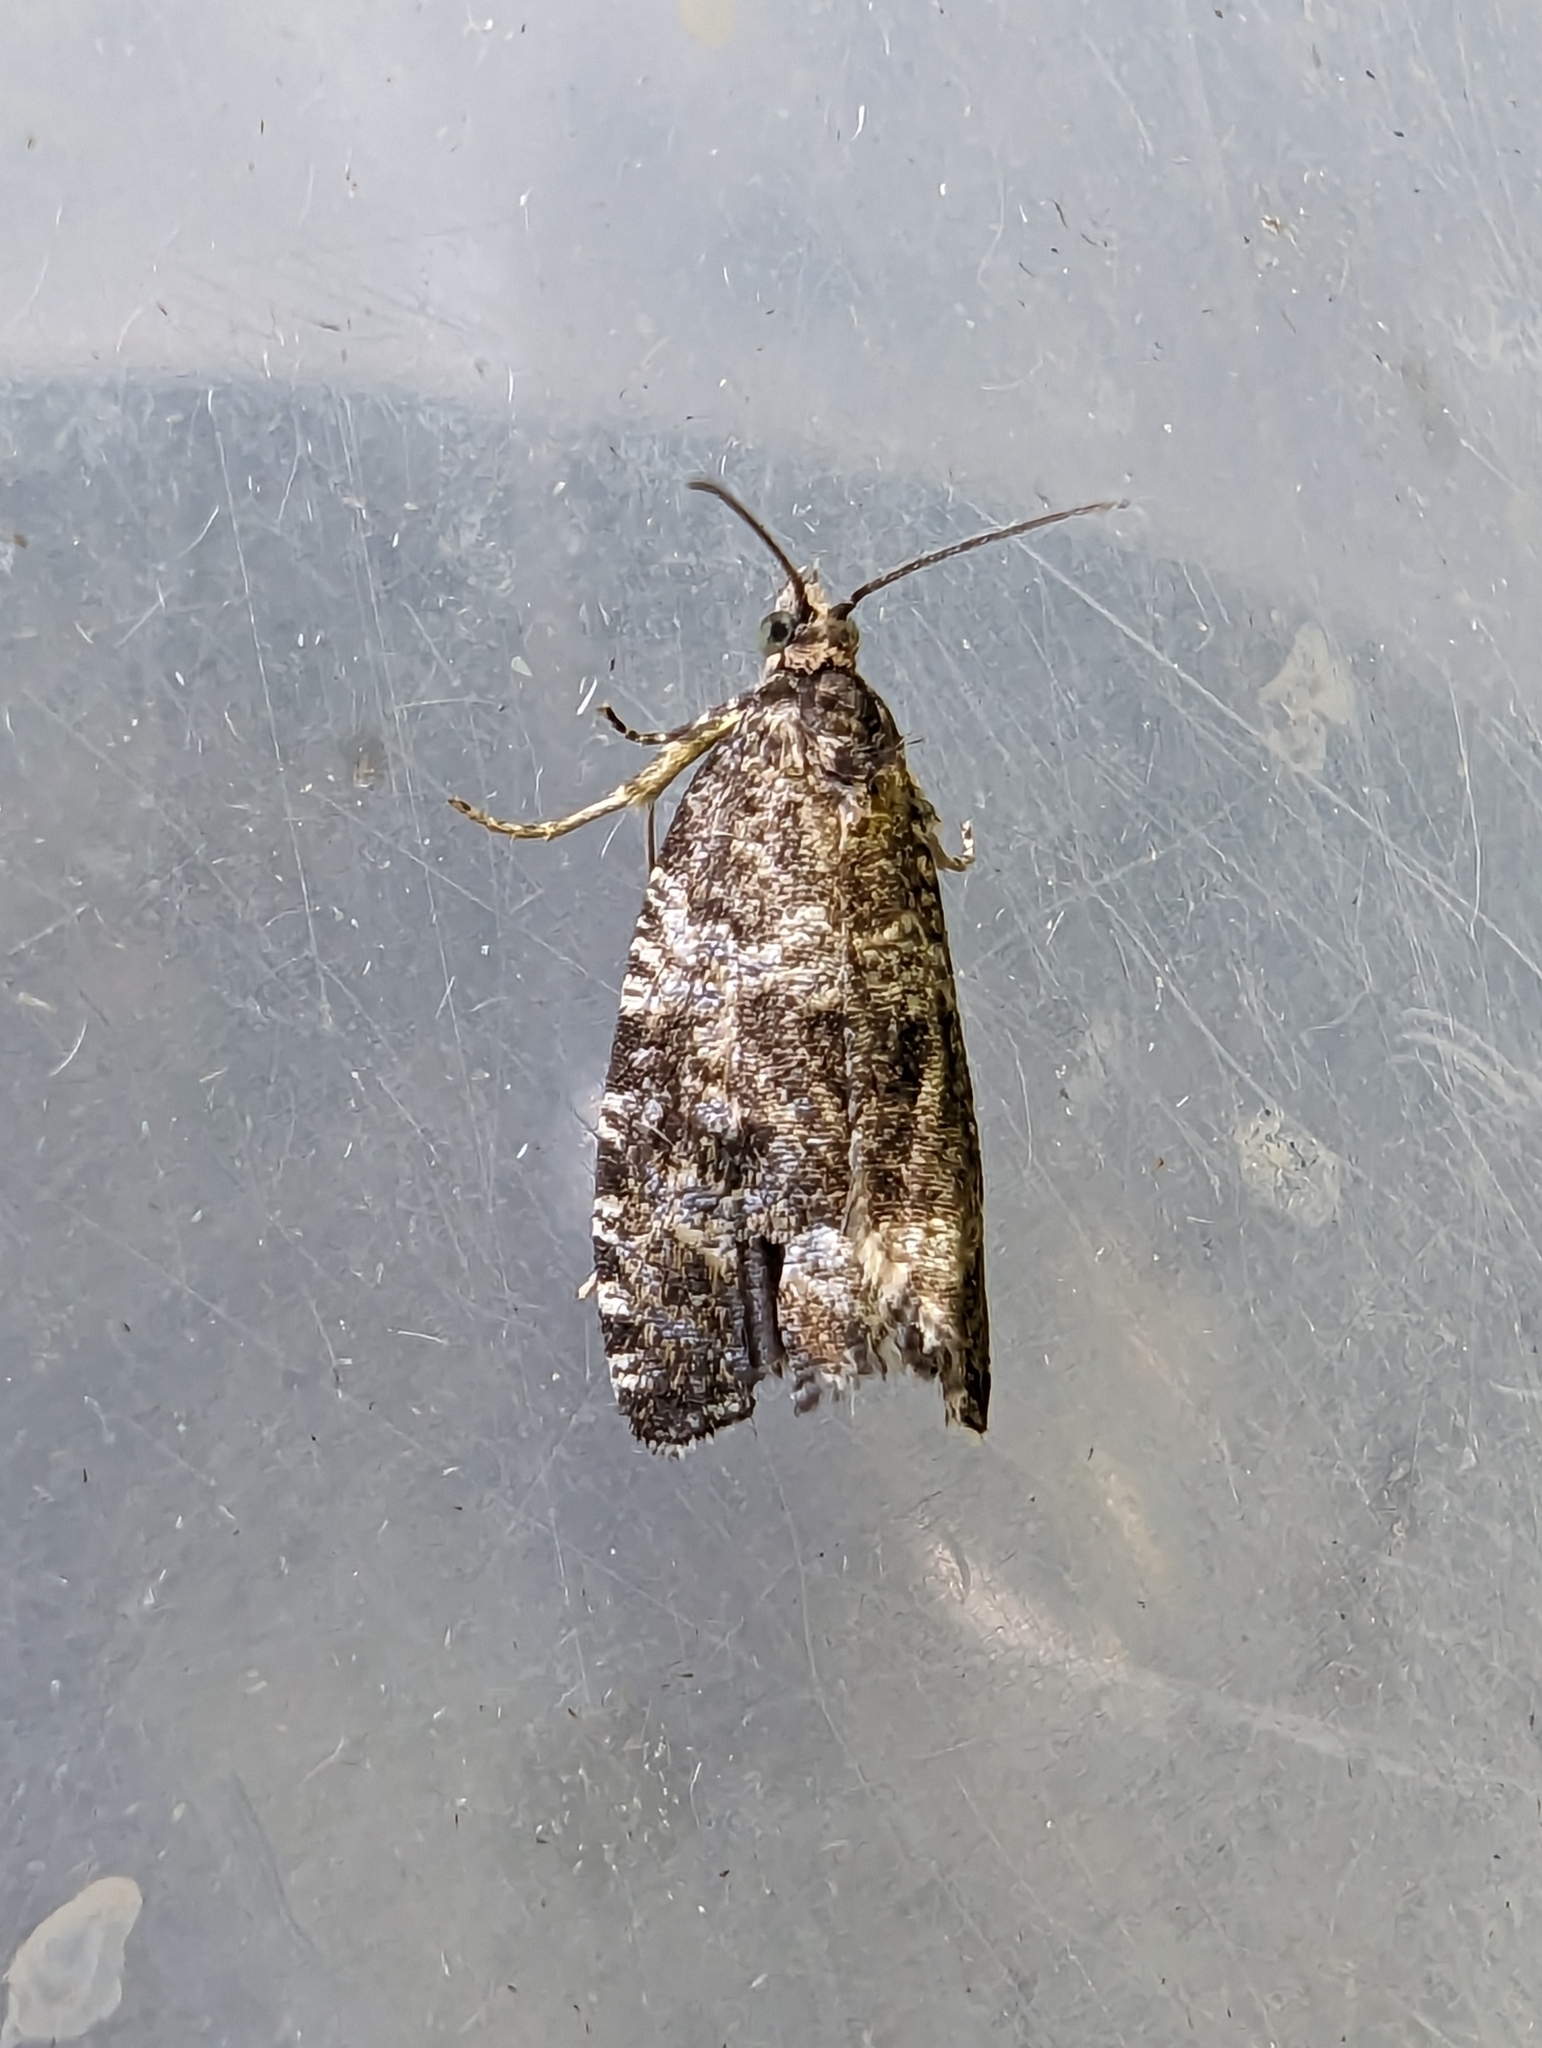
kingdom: Animalia
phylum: Arthropoda
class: Insecta
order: Lepidoptera
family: Tortricidae
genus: Syricoris
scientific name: Syricoris lacunana
